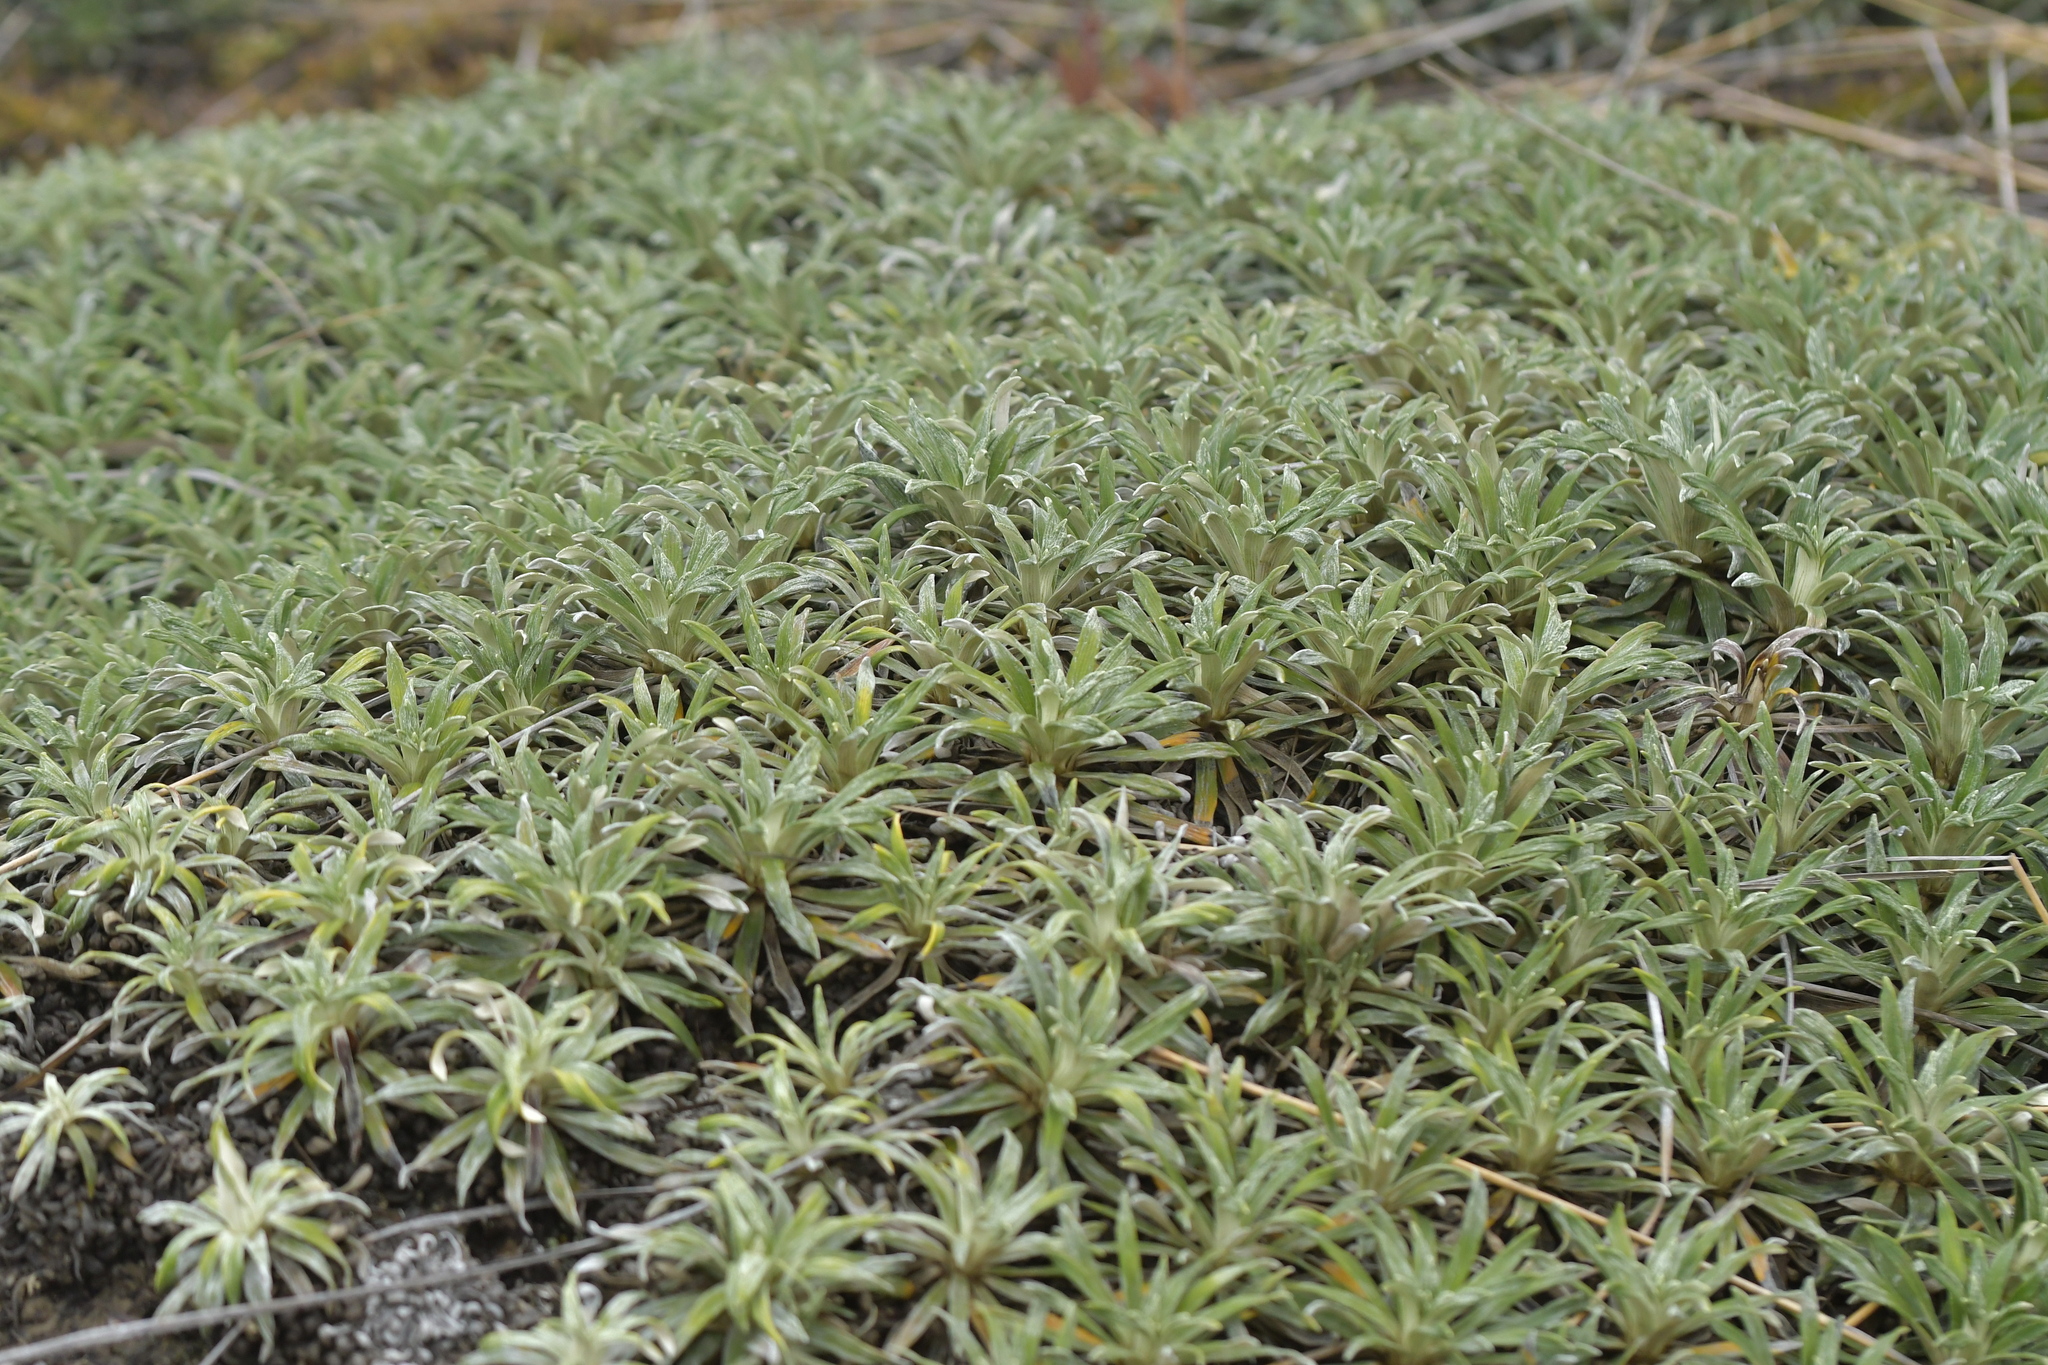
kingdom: Plantae
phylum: Tracheophyta
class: Magnoliopsida
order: Asterales
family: Asteraceae
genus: Celmisia
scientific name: Celmisia viscosa
